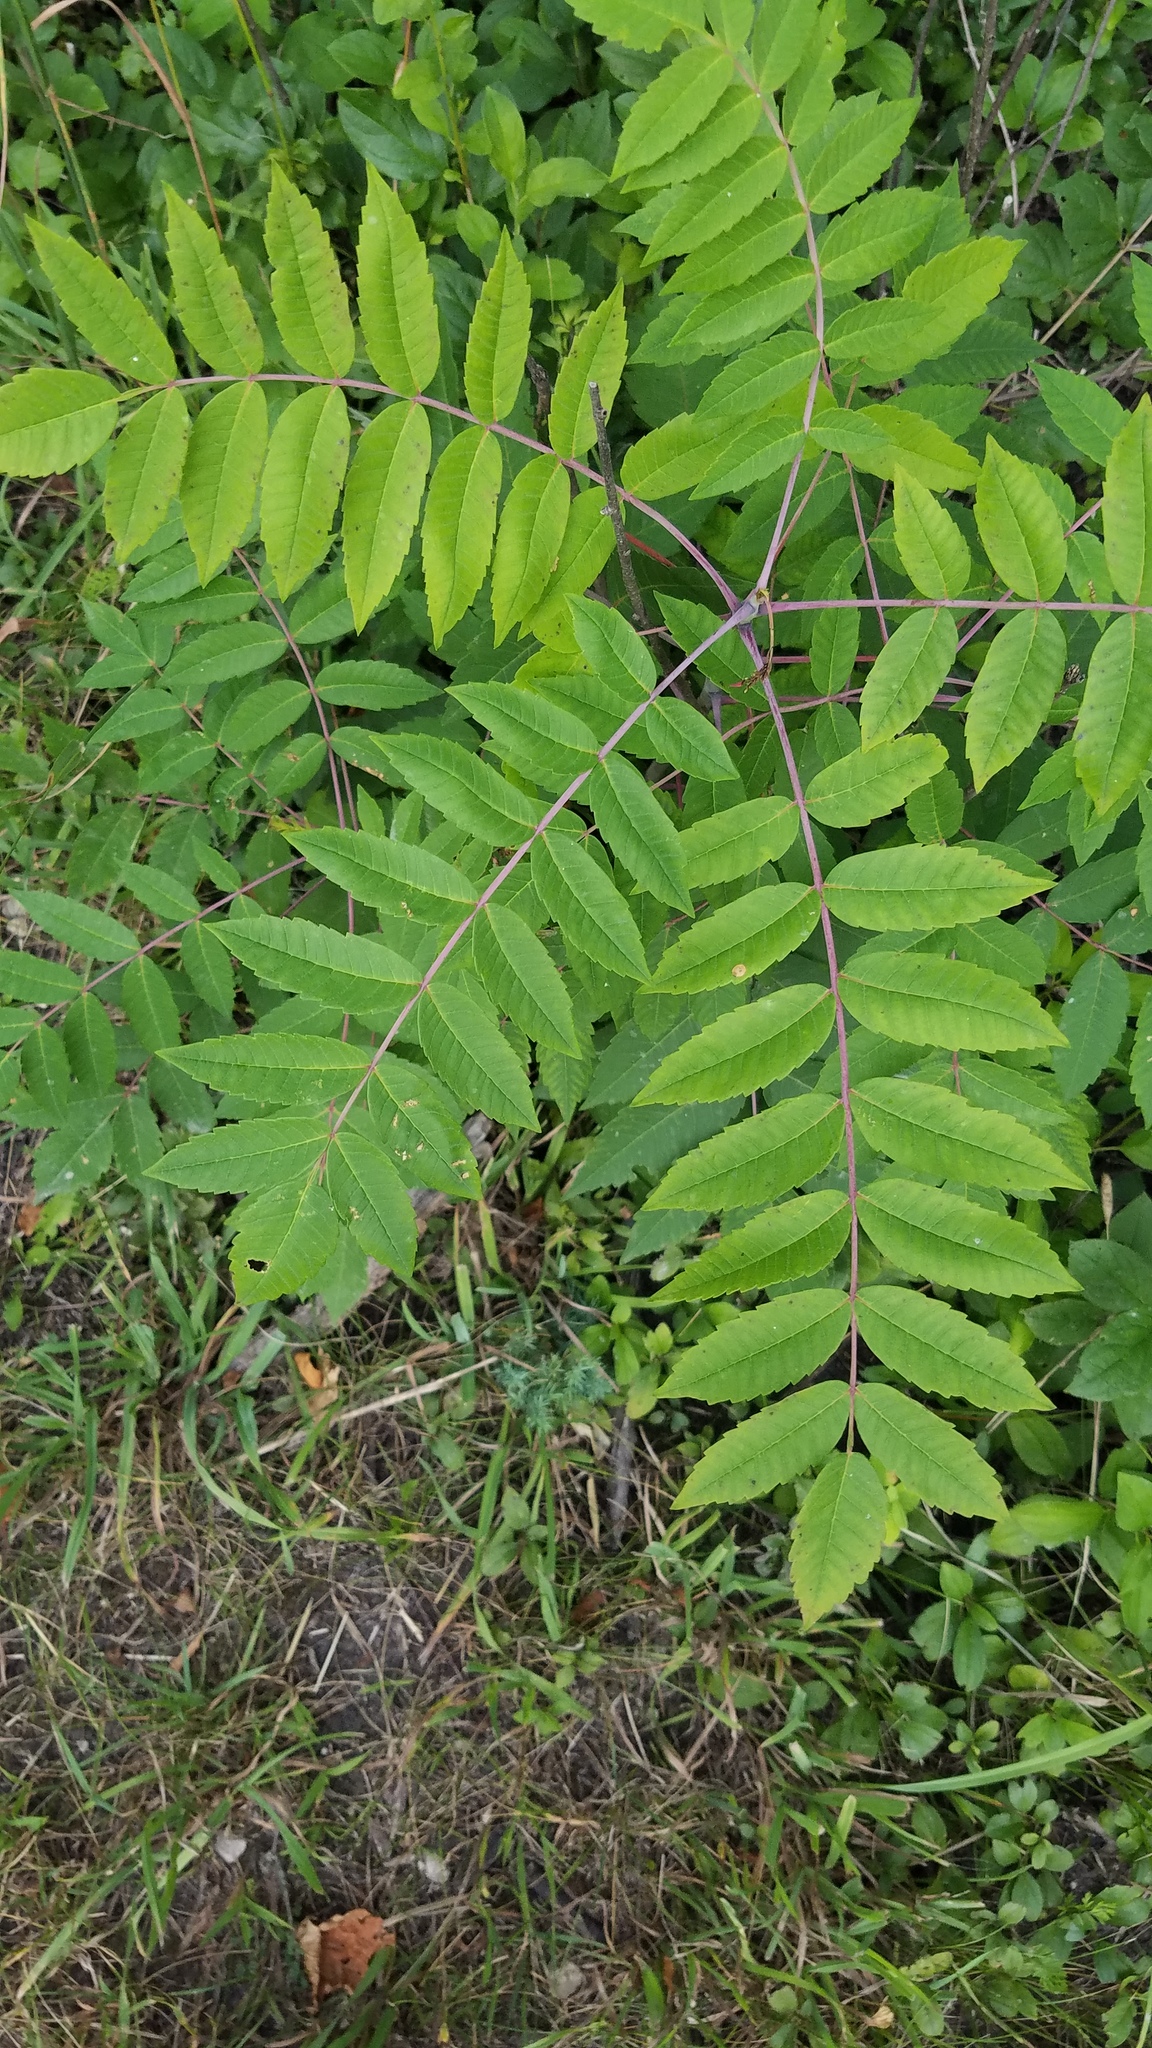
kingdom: Plantae
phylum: Tracheophyta
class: Magnoliopsida
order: Sapindales
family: Anacardiaceae
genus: Rhus
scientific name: Rhus glabra
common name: Scarlet sumac
